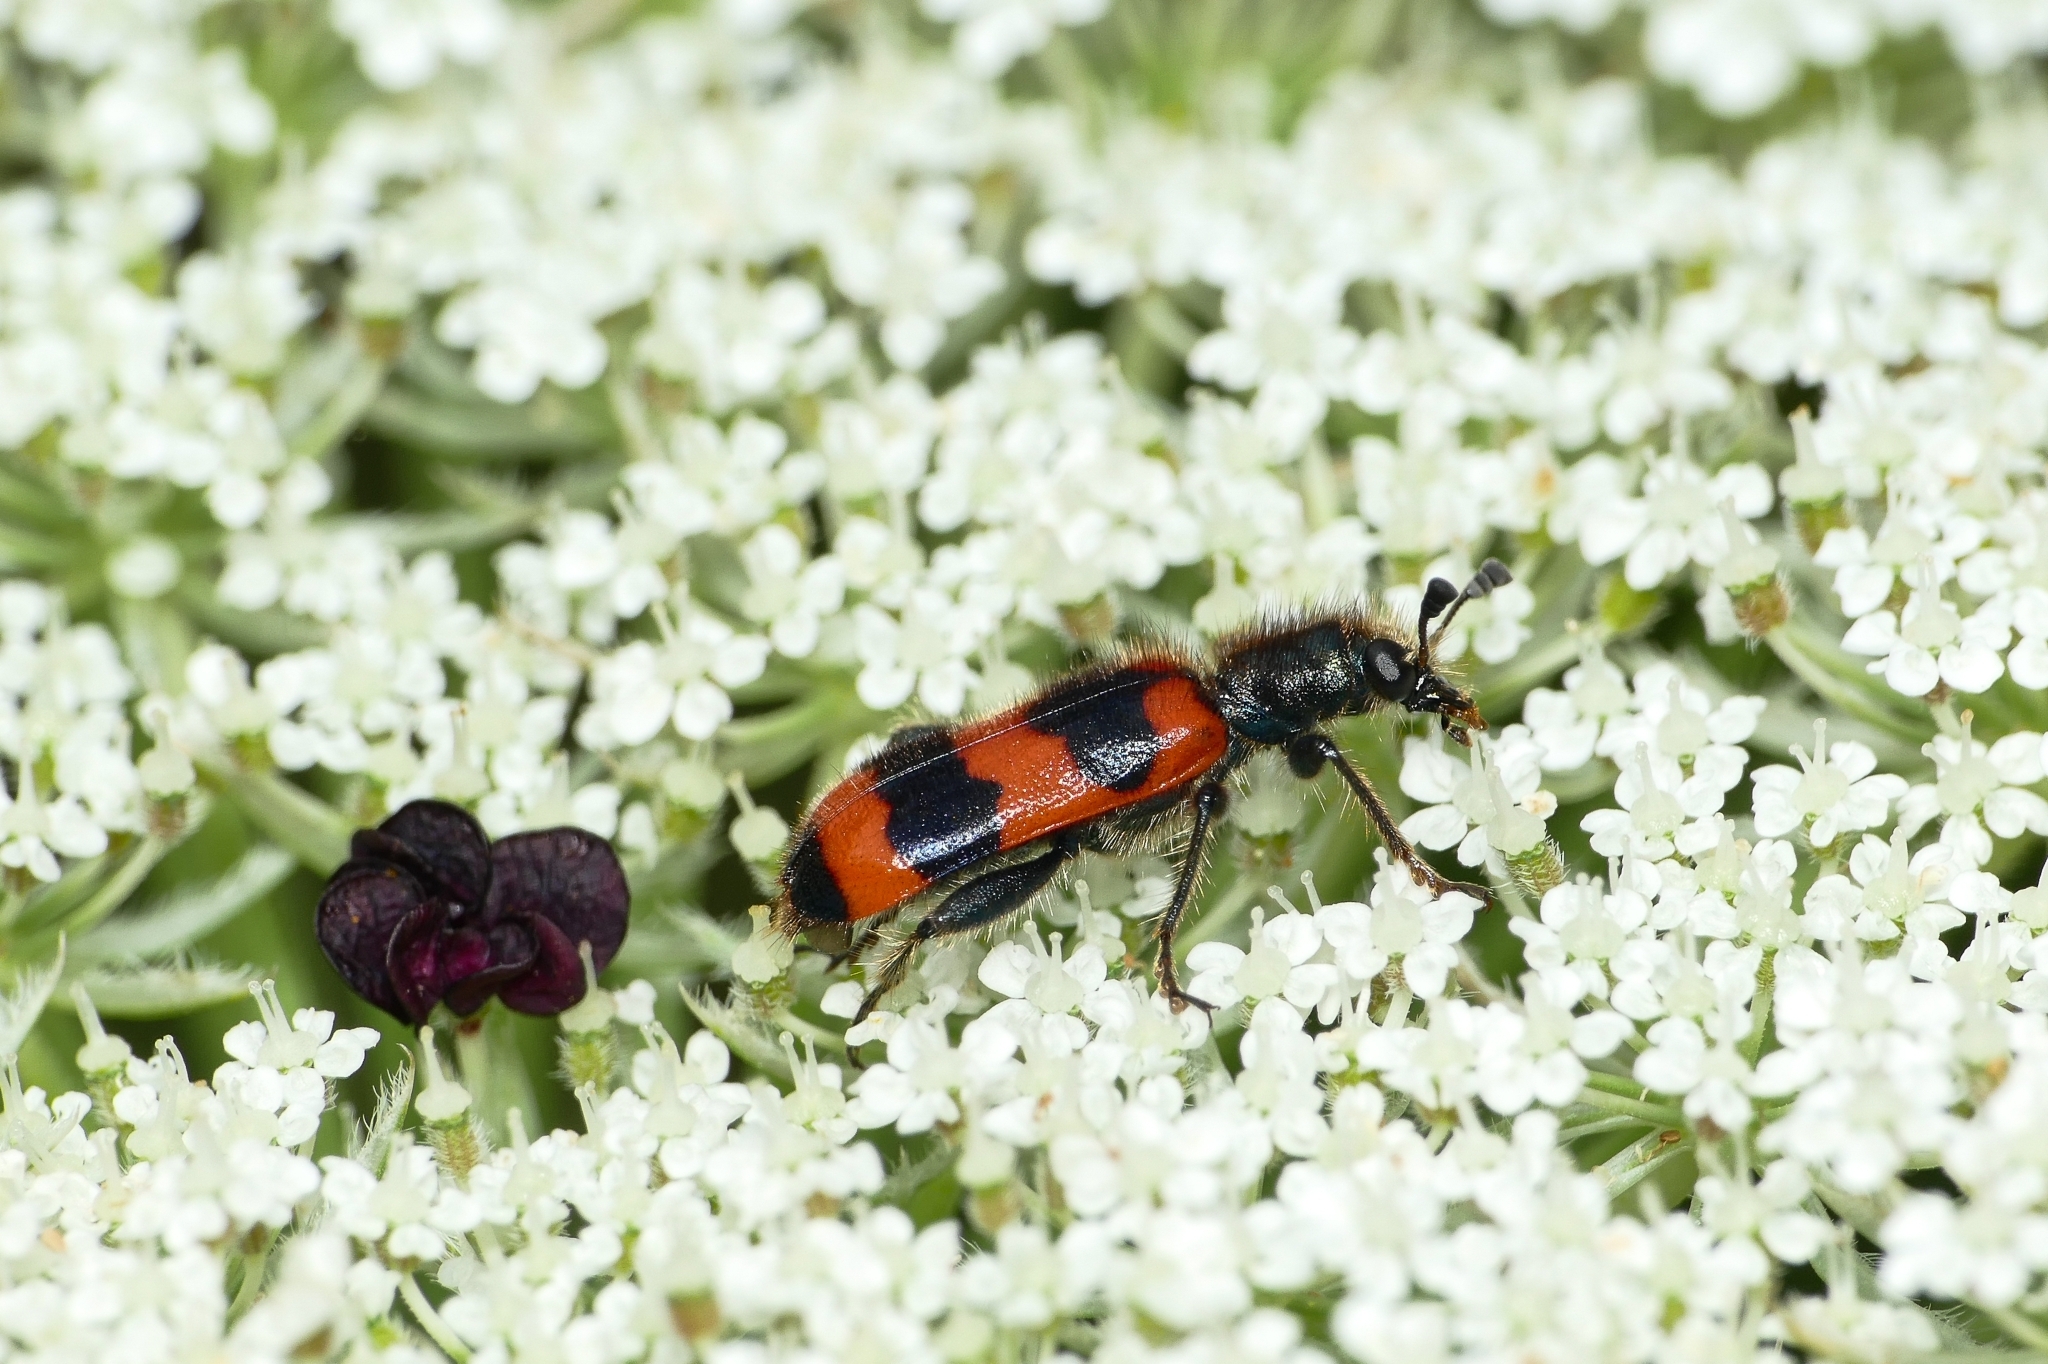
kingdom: Animalia
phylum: Arthropoda
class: Insecta
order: Coleoptera
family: Cleridae
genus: Trichodes
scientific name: Trichodes apiarius
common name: Bee-eating beetle
